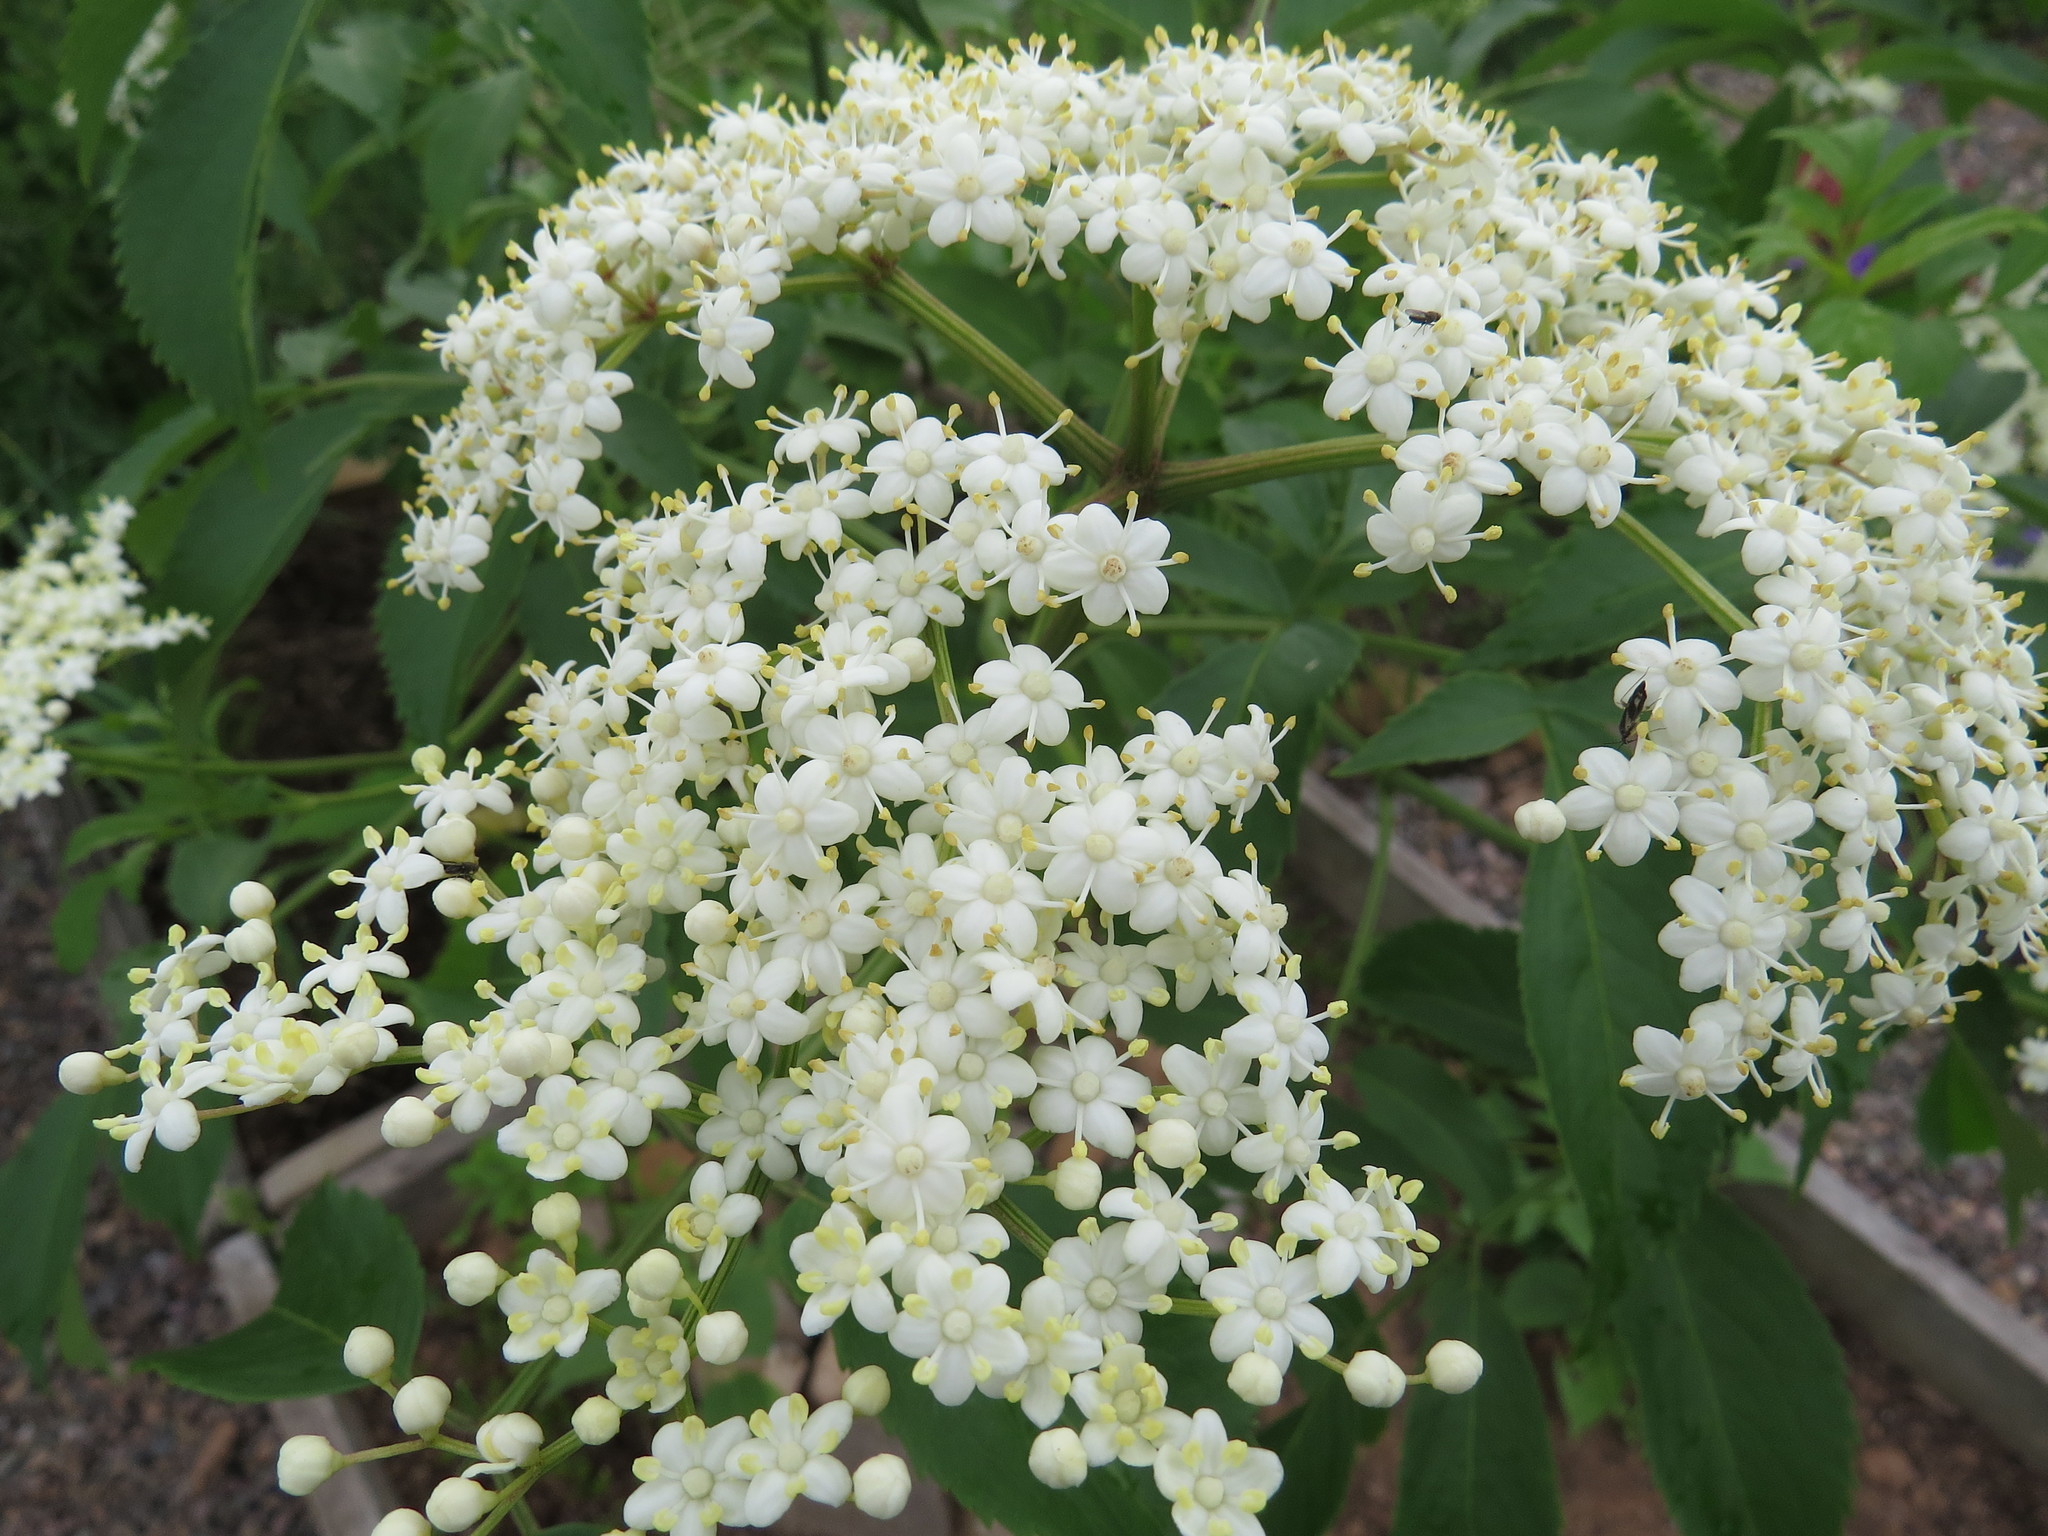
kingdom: Plantae
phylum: Tracheophyta
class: Magnoliopsida
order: Dipsacales
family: Viburnaceae
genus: Sambucus
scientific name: Sambucus canadensis
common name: American elder
